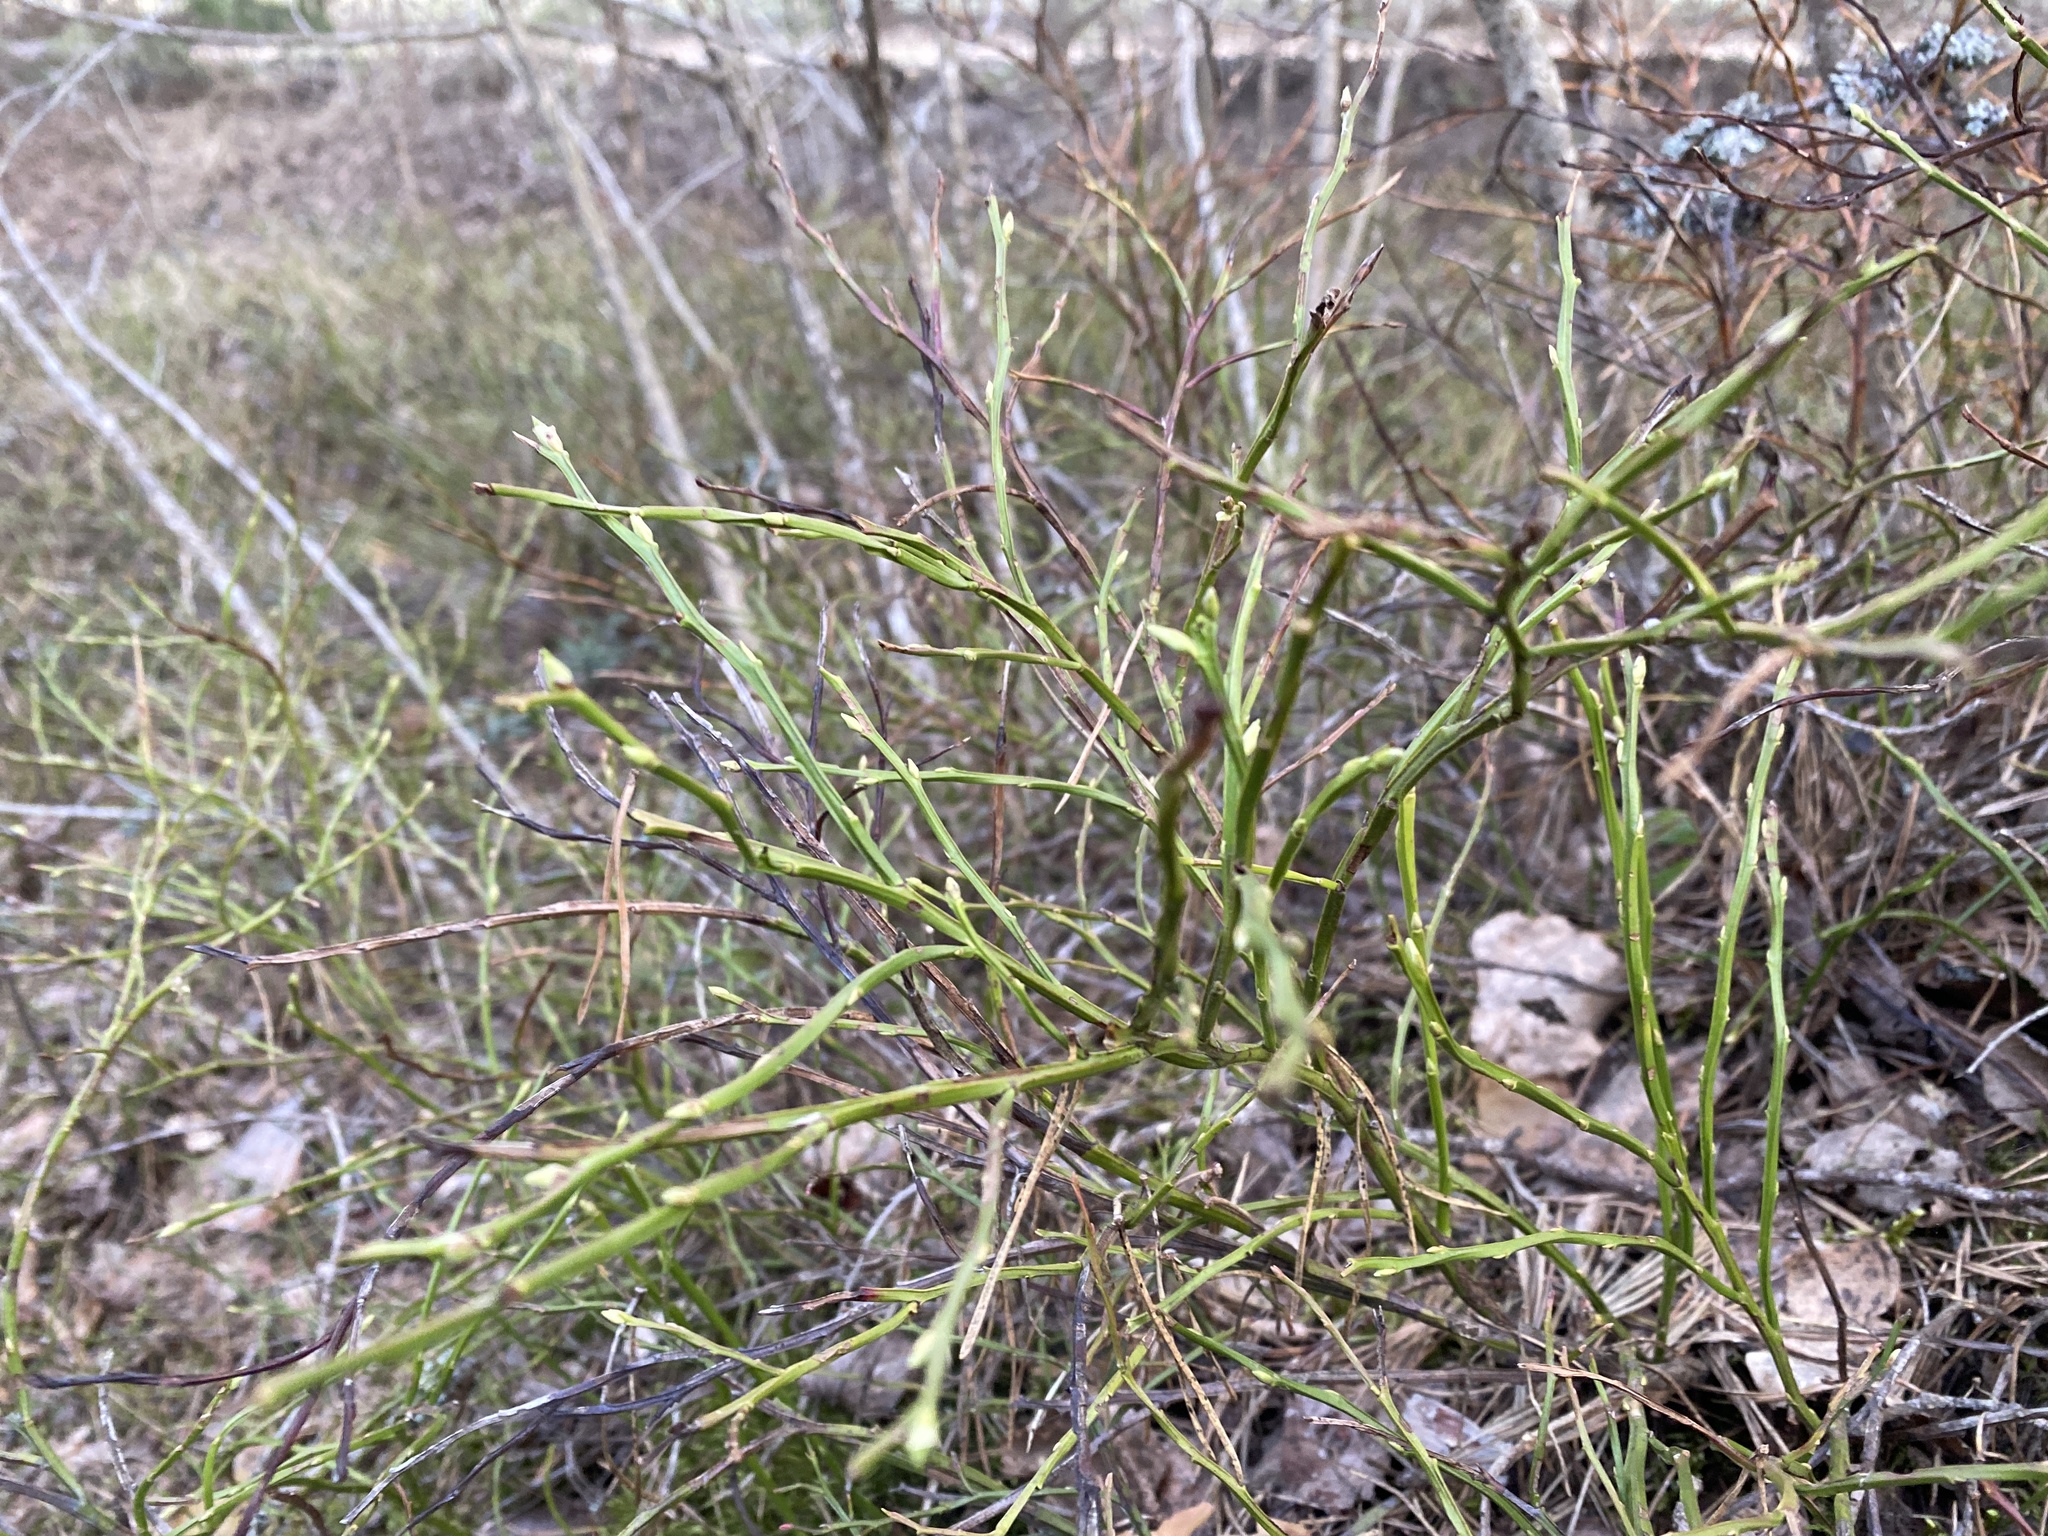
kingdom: Plantae
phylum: Tracheophyta
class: Magnoliopsida
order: Ericales
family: Ericaceae
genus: Vaccinium
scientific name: Vaccinium myrtillus
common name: Bilberry
